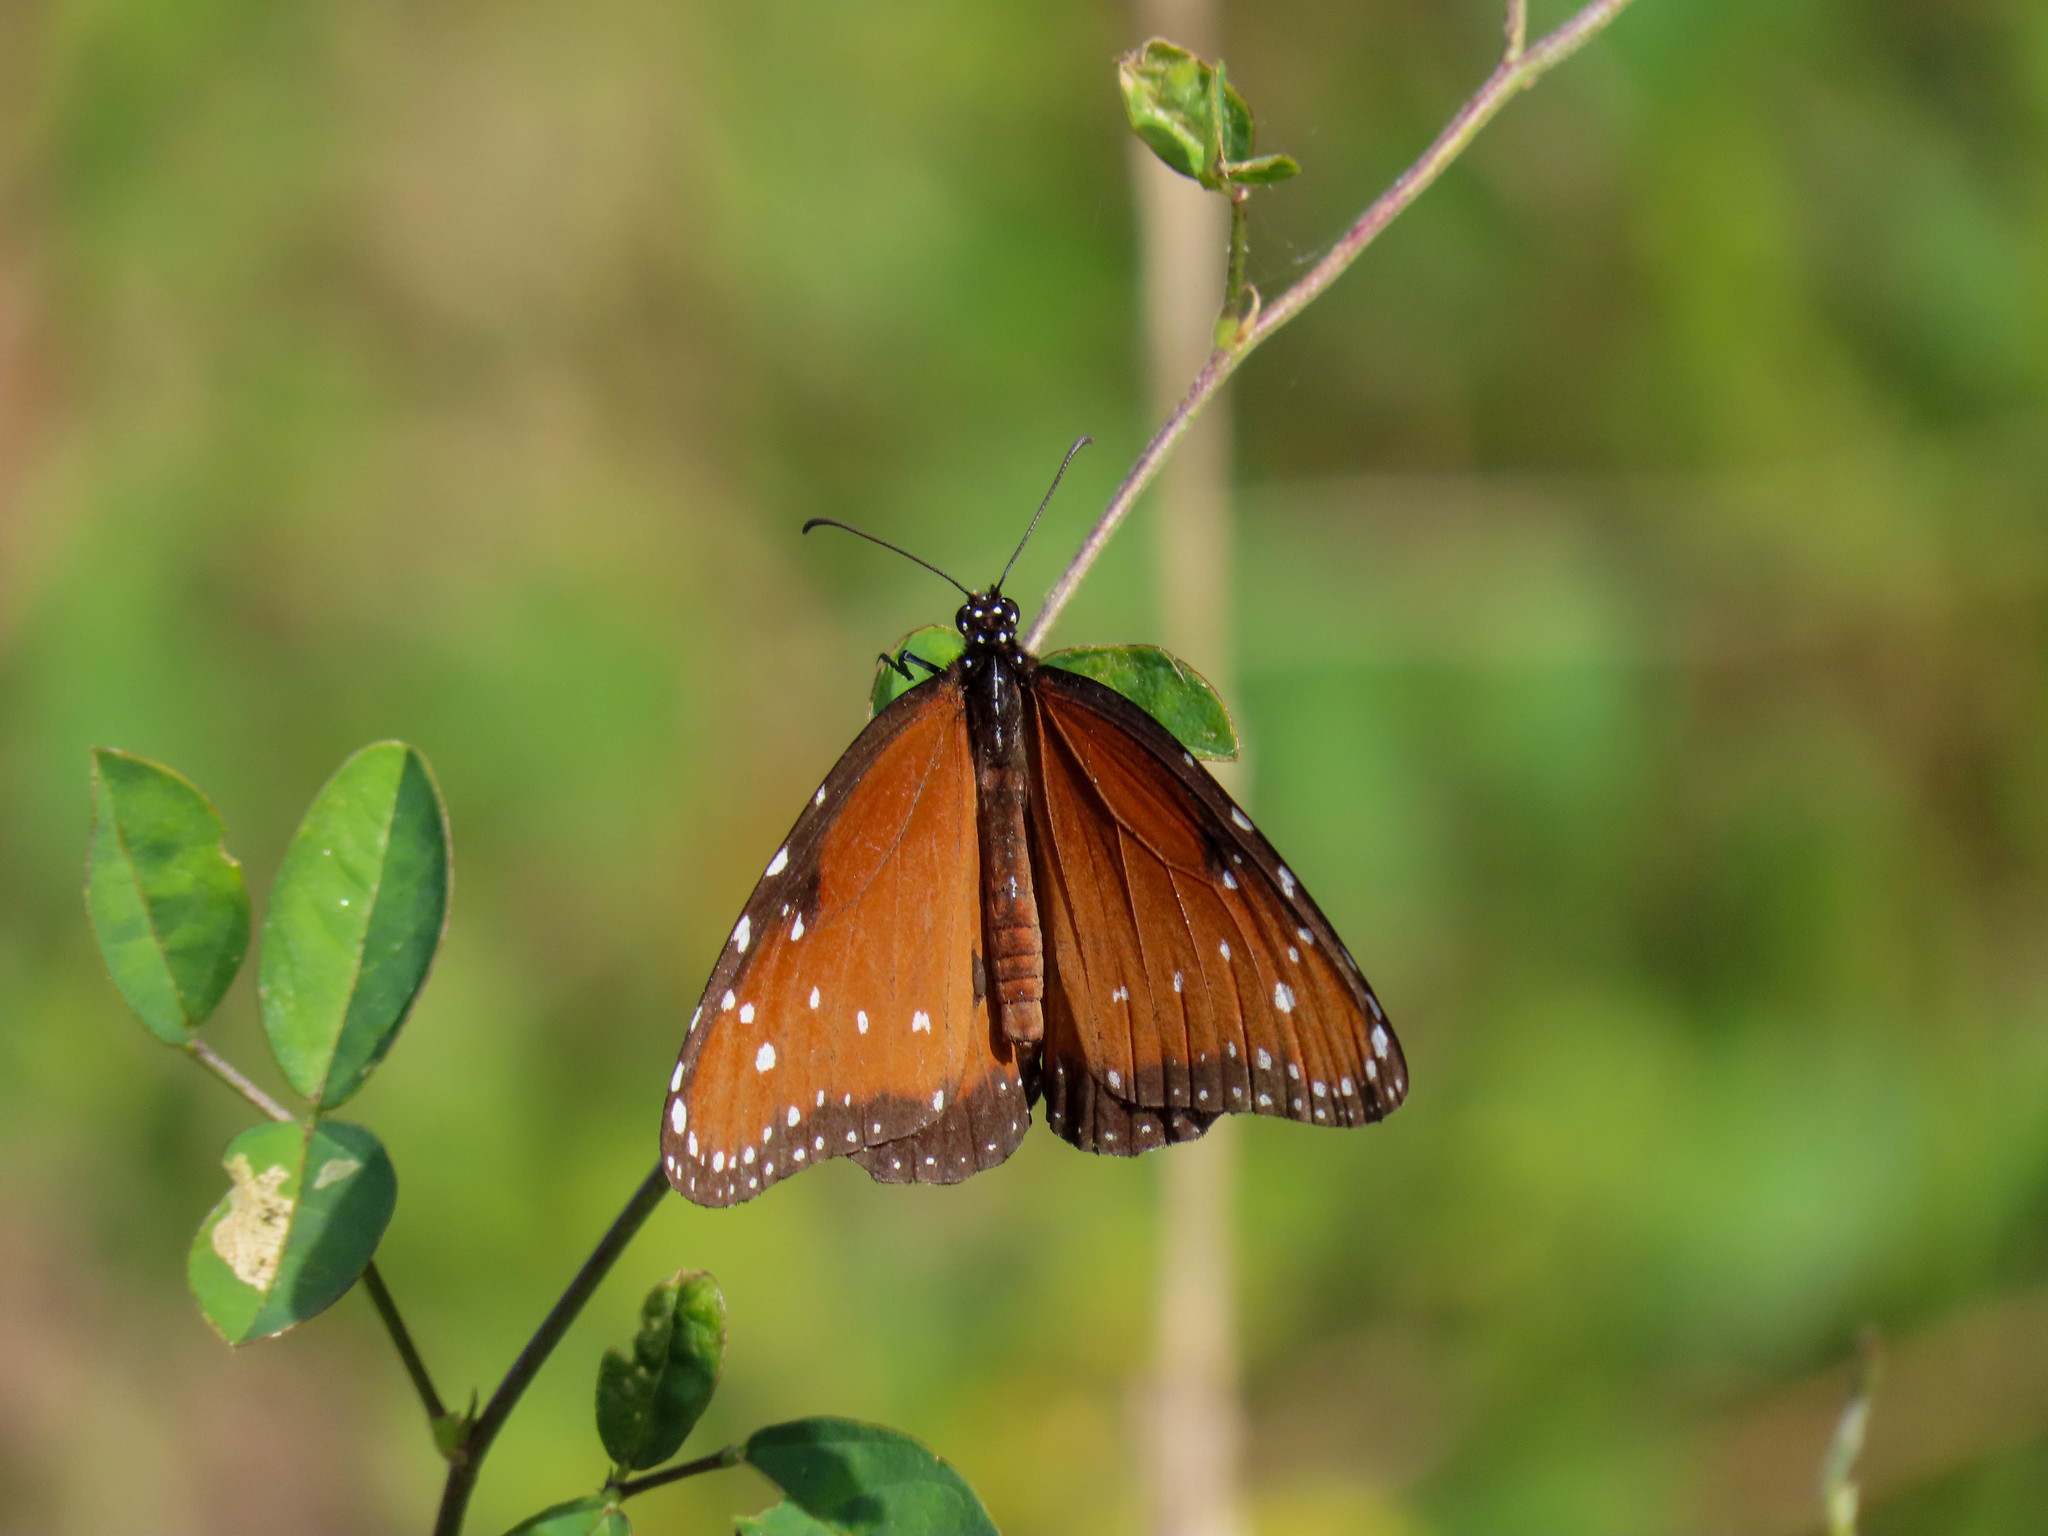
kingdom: Animalia
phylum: Arthropoda
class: Insecta
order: Lepidoptera
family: Nymphalidae
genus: Danaus
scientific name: Danaus gilippus
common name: Queen
